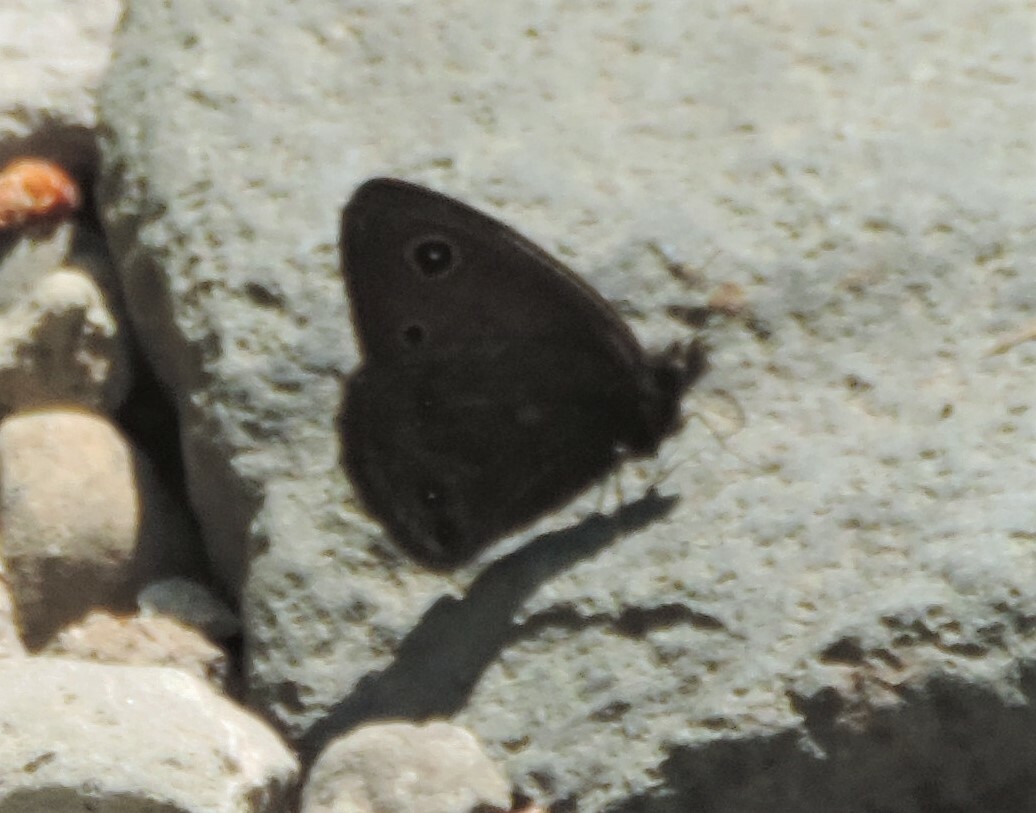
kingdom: Animalia
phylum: Arthropoda
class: Insecta
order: Lepidoptera
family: Nymphalidae
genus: Cercyonis
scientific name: Cercyonis oetus
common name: Small wood-nymph
